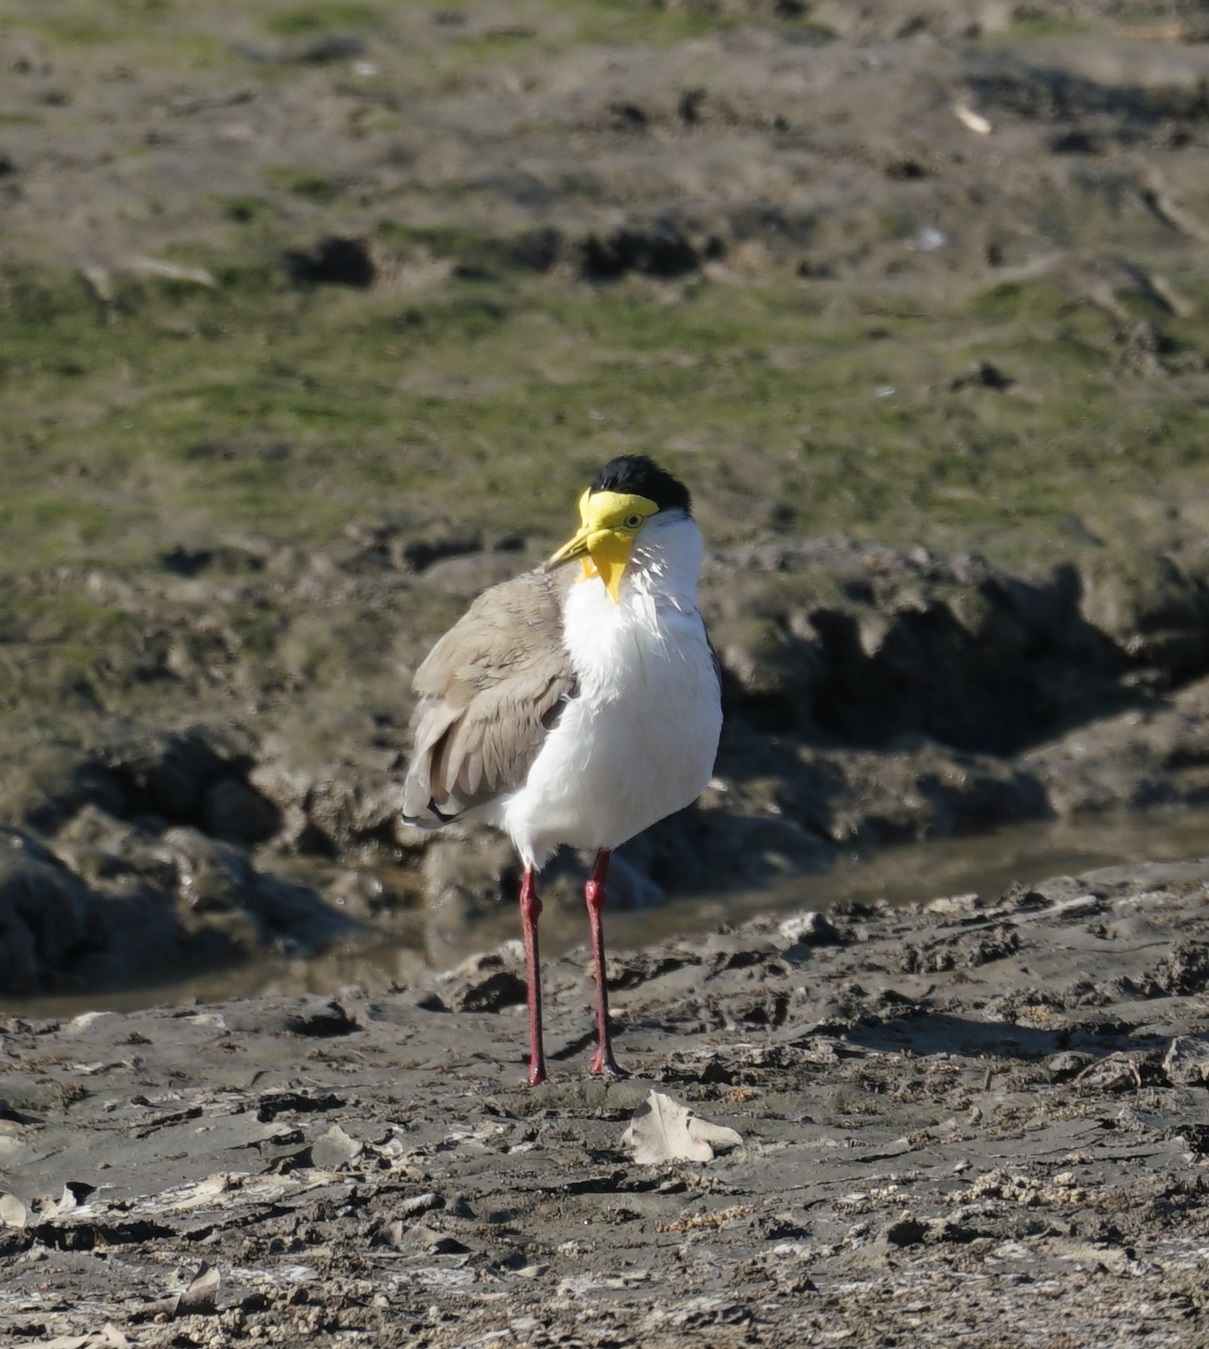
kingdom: Animalia
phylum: Chordata
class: Aves
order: Charadriiformes
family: Charadriidae
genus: Vanellus
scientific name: Vanellus miles
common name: Masked lapwing
